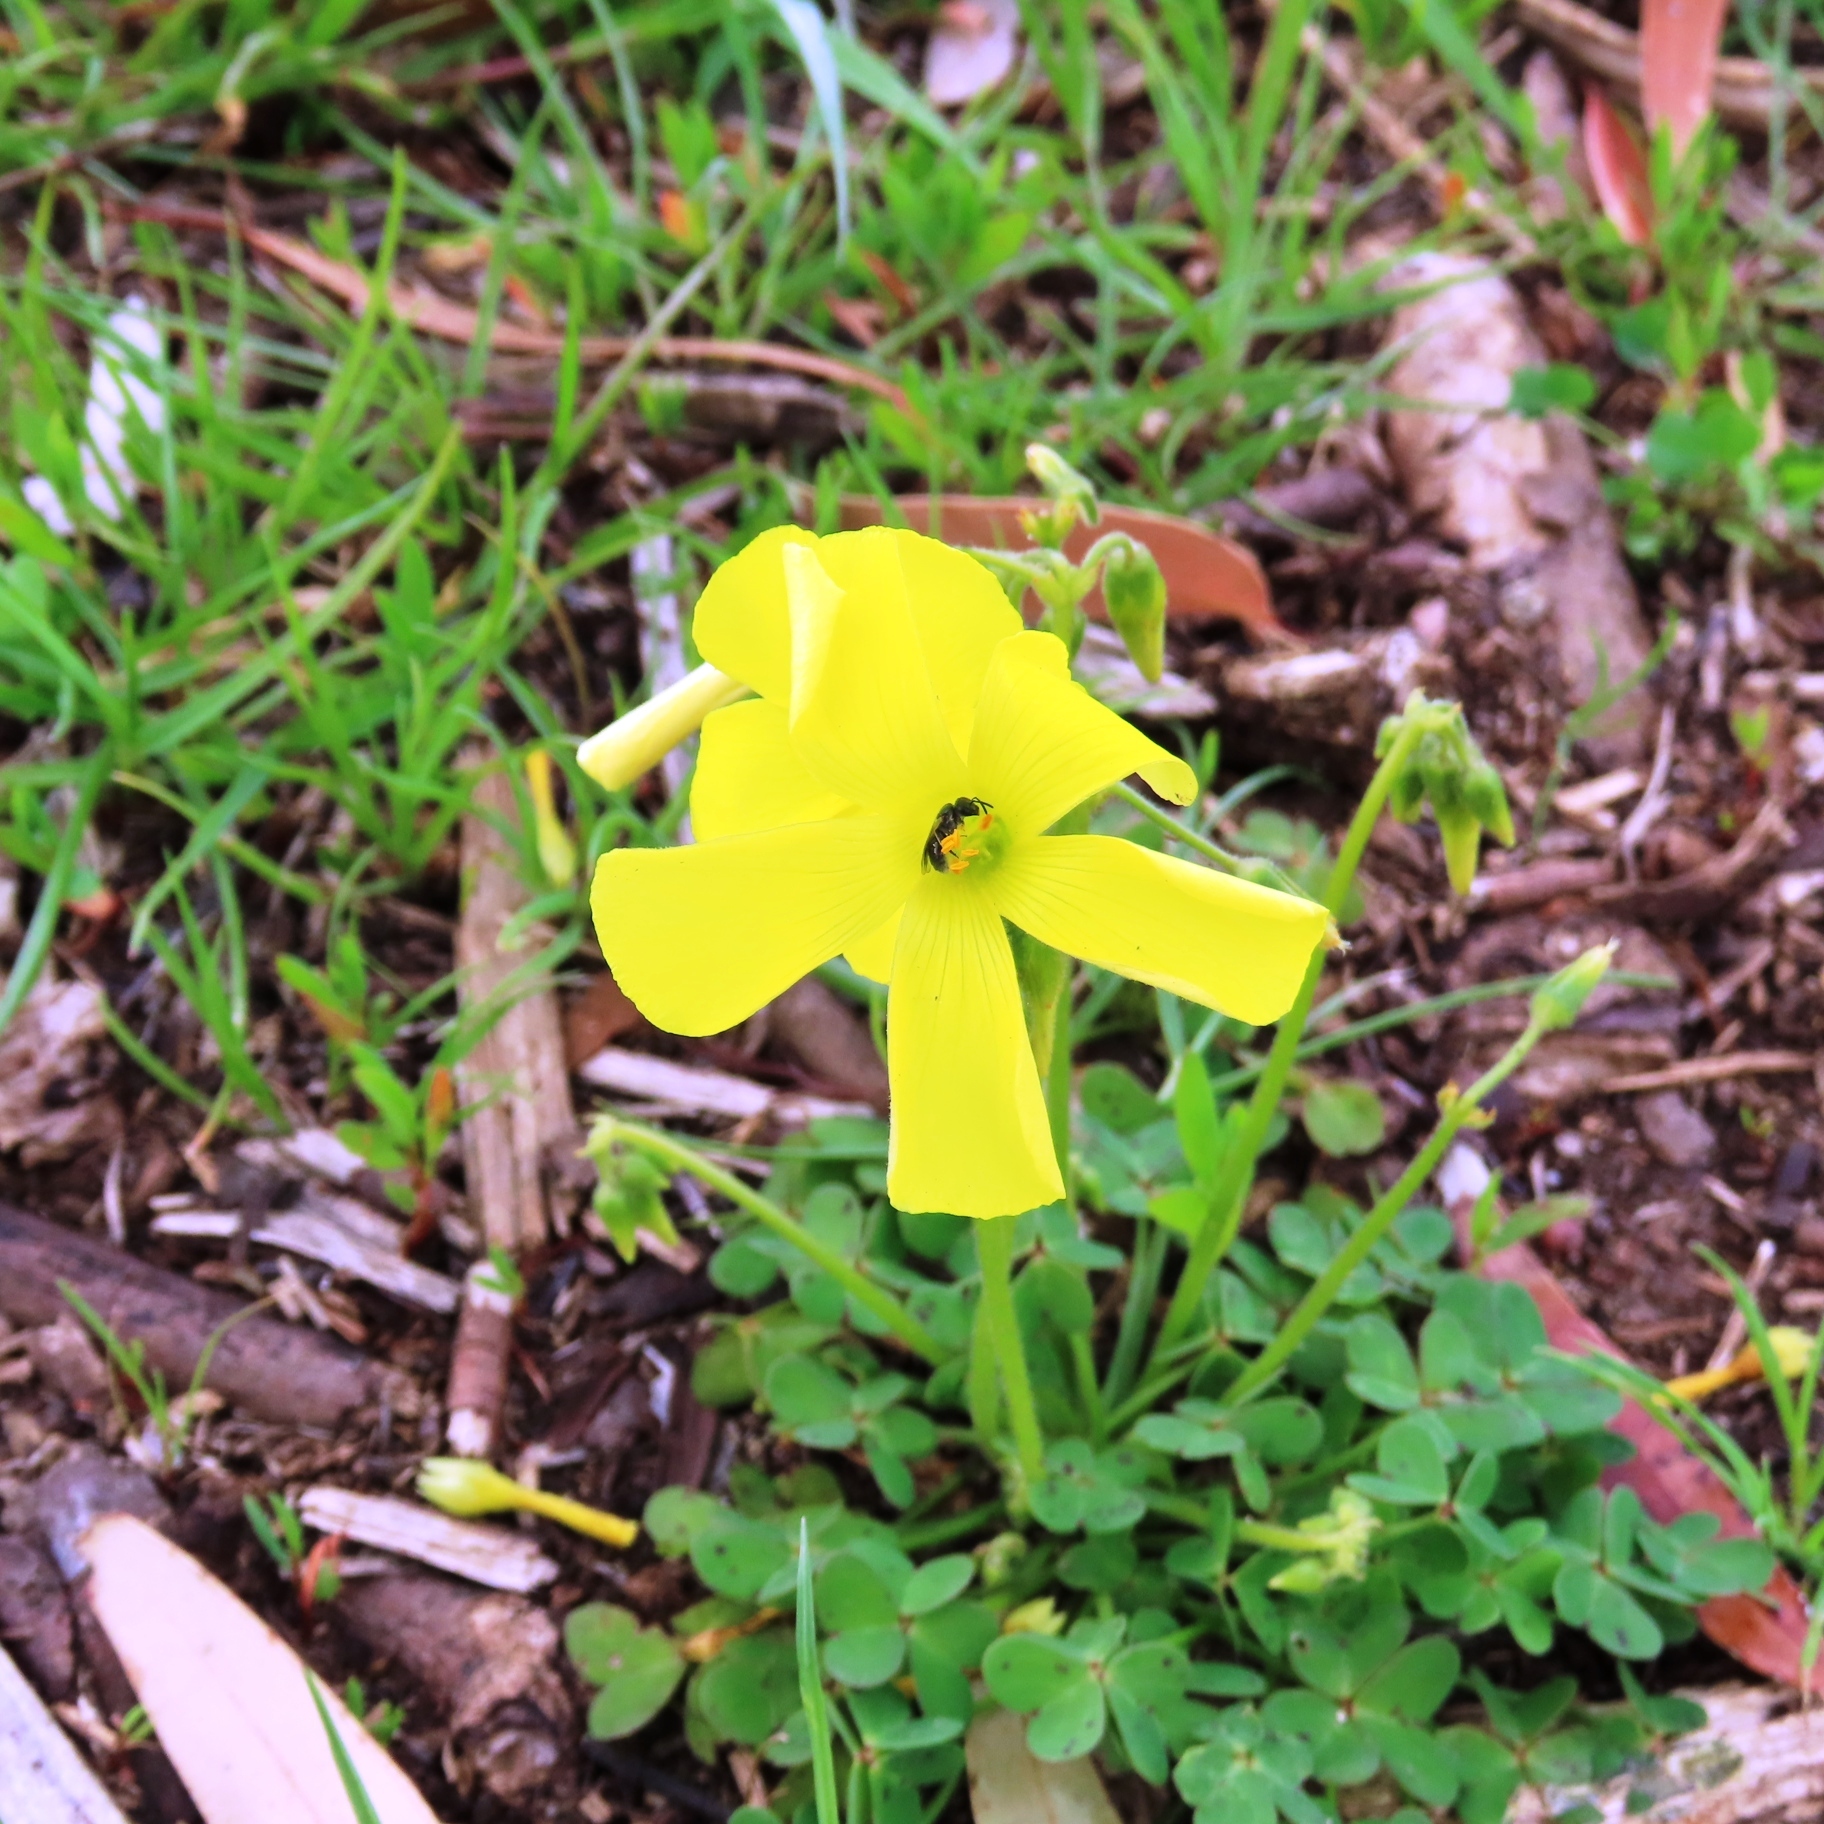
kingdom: Plantae
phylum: Tracheophyta
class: Magnoliopsida
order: Oxalidales
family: Oxalidaceae
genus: Oxalis
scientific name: Oxalis pes-caprae
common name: Bermuda-buttercup
